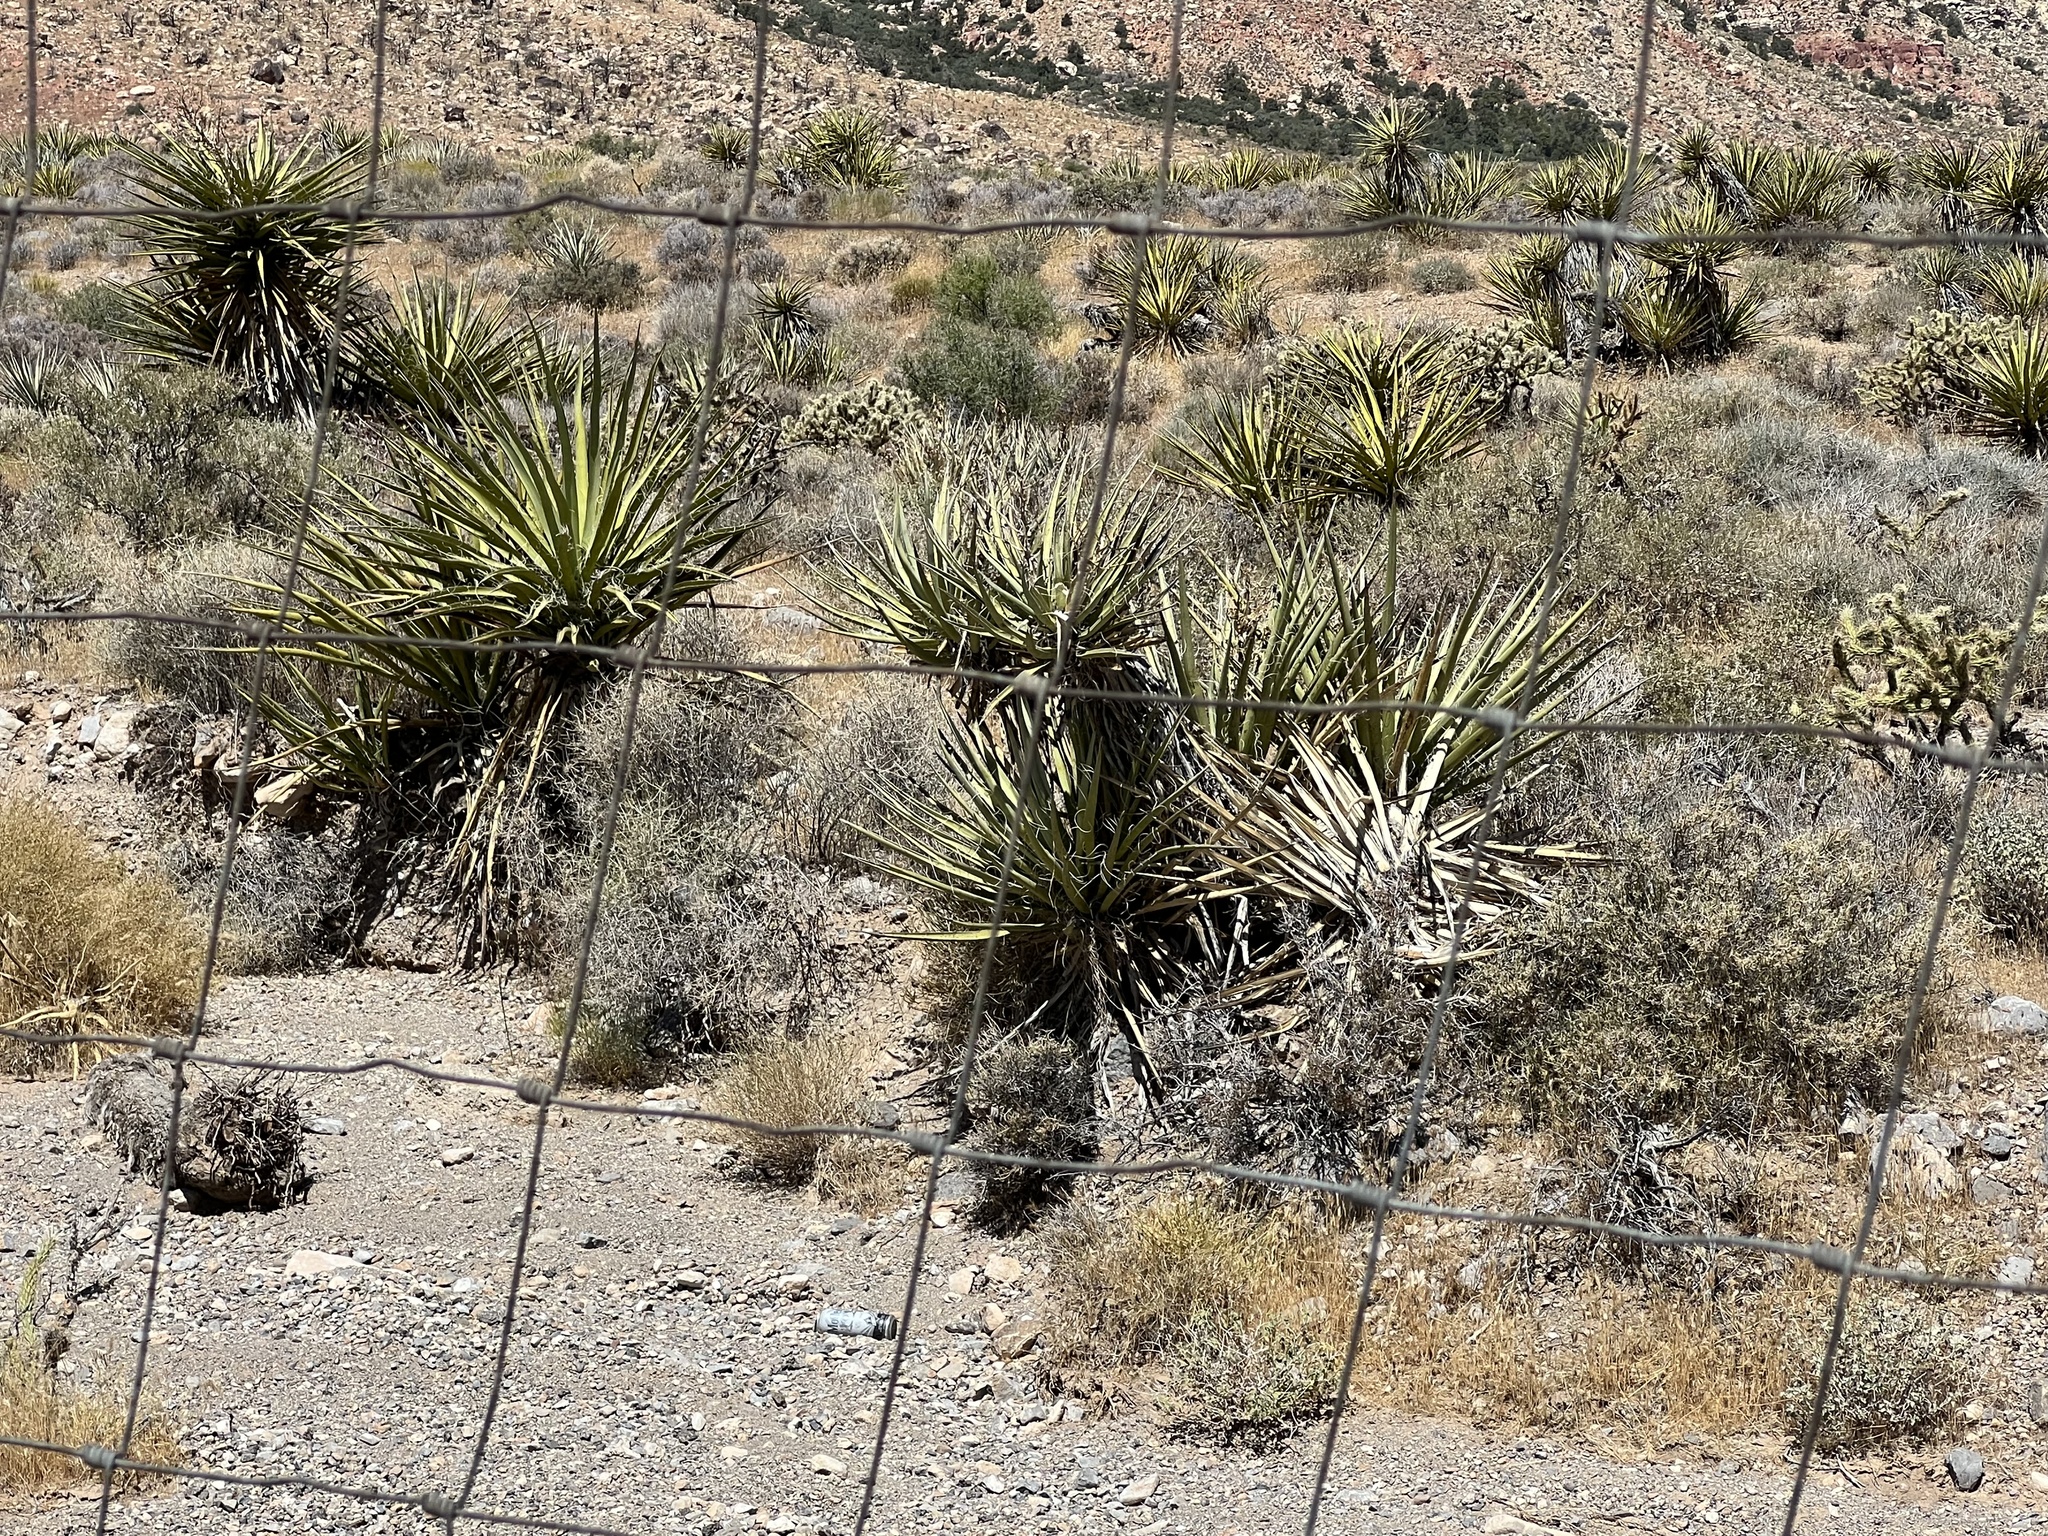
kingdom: Plantae
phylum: Tracheophyta
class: Liliopsida
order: Asparagales
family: Asparagaceae
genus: Yucca
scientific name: Yucca schidigera
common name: Mojave yucca
